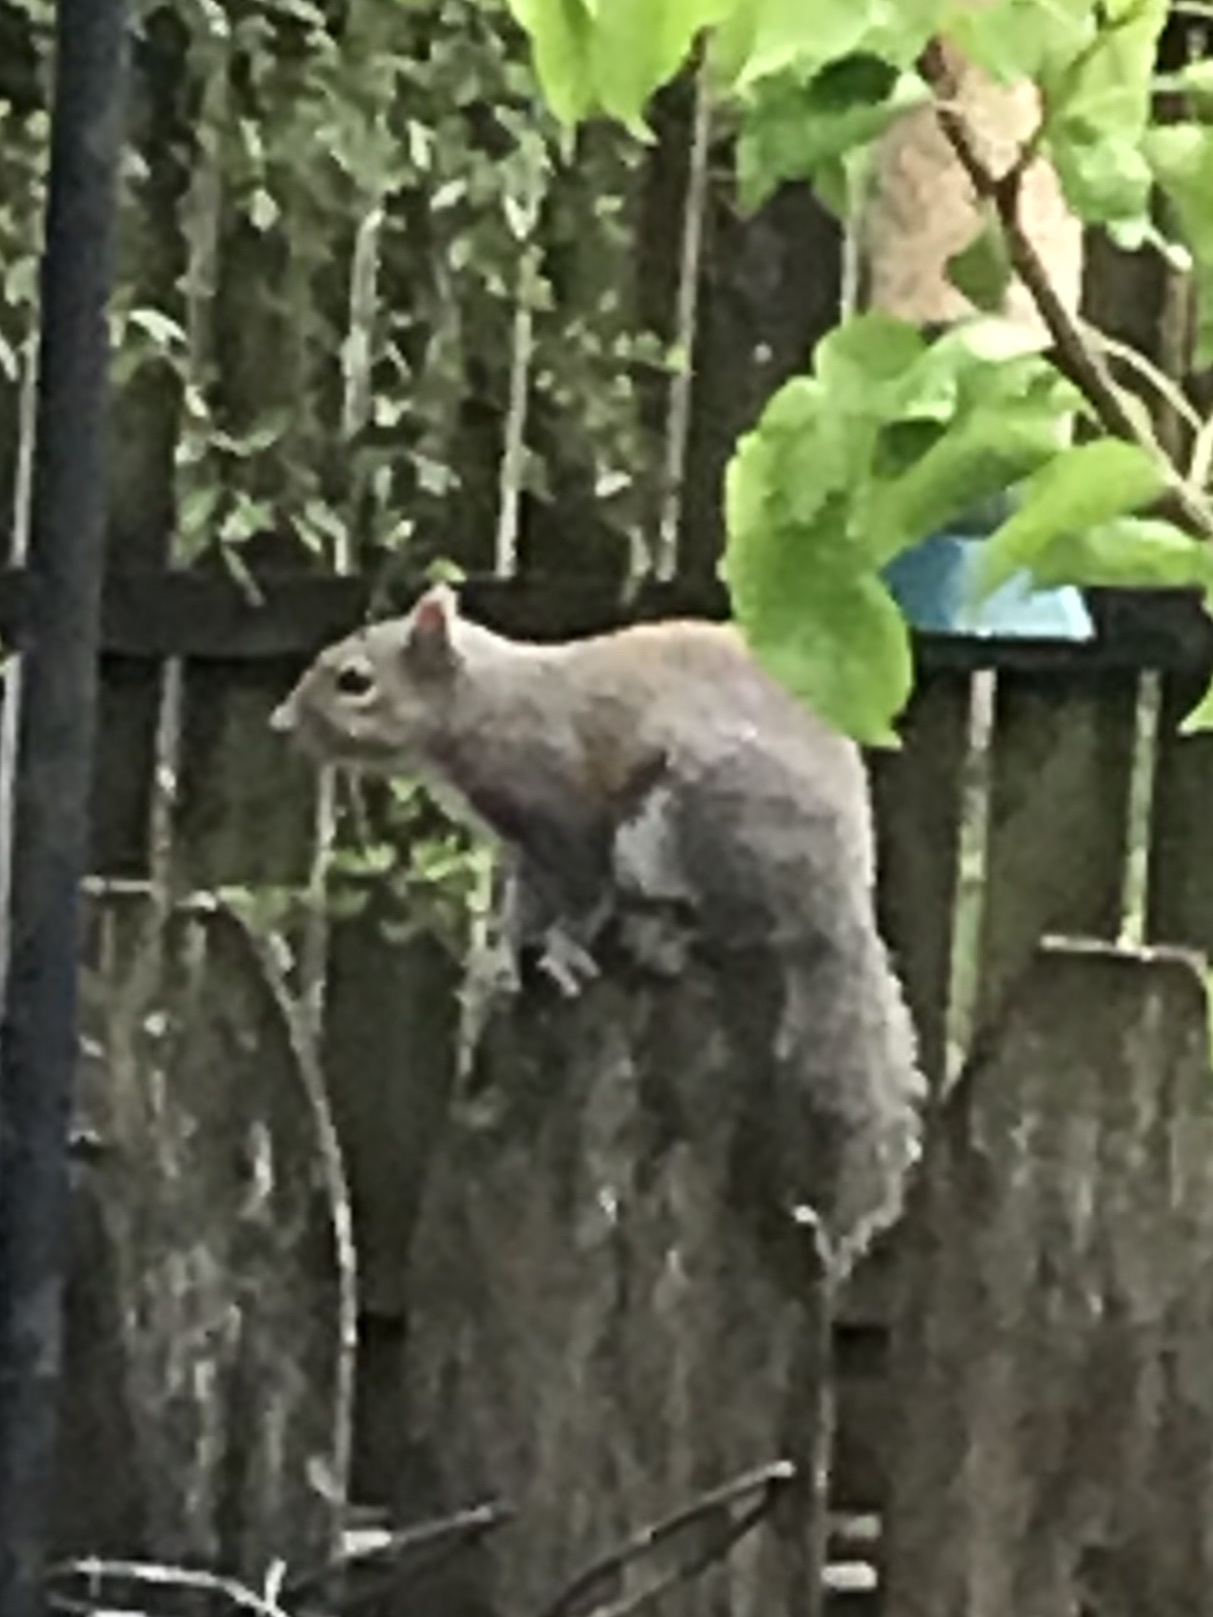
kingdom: Animalia
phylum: Chordata
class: Mammalia
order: Rodentia
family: Sciuridae
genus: Sciurus
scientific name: Sciurus carolinensis
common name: Eastern gray squirrel
